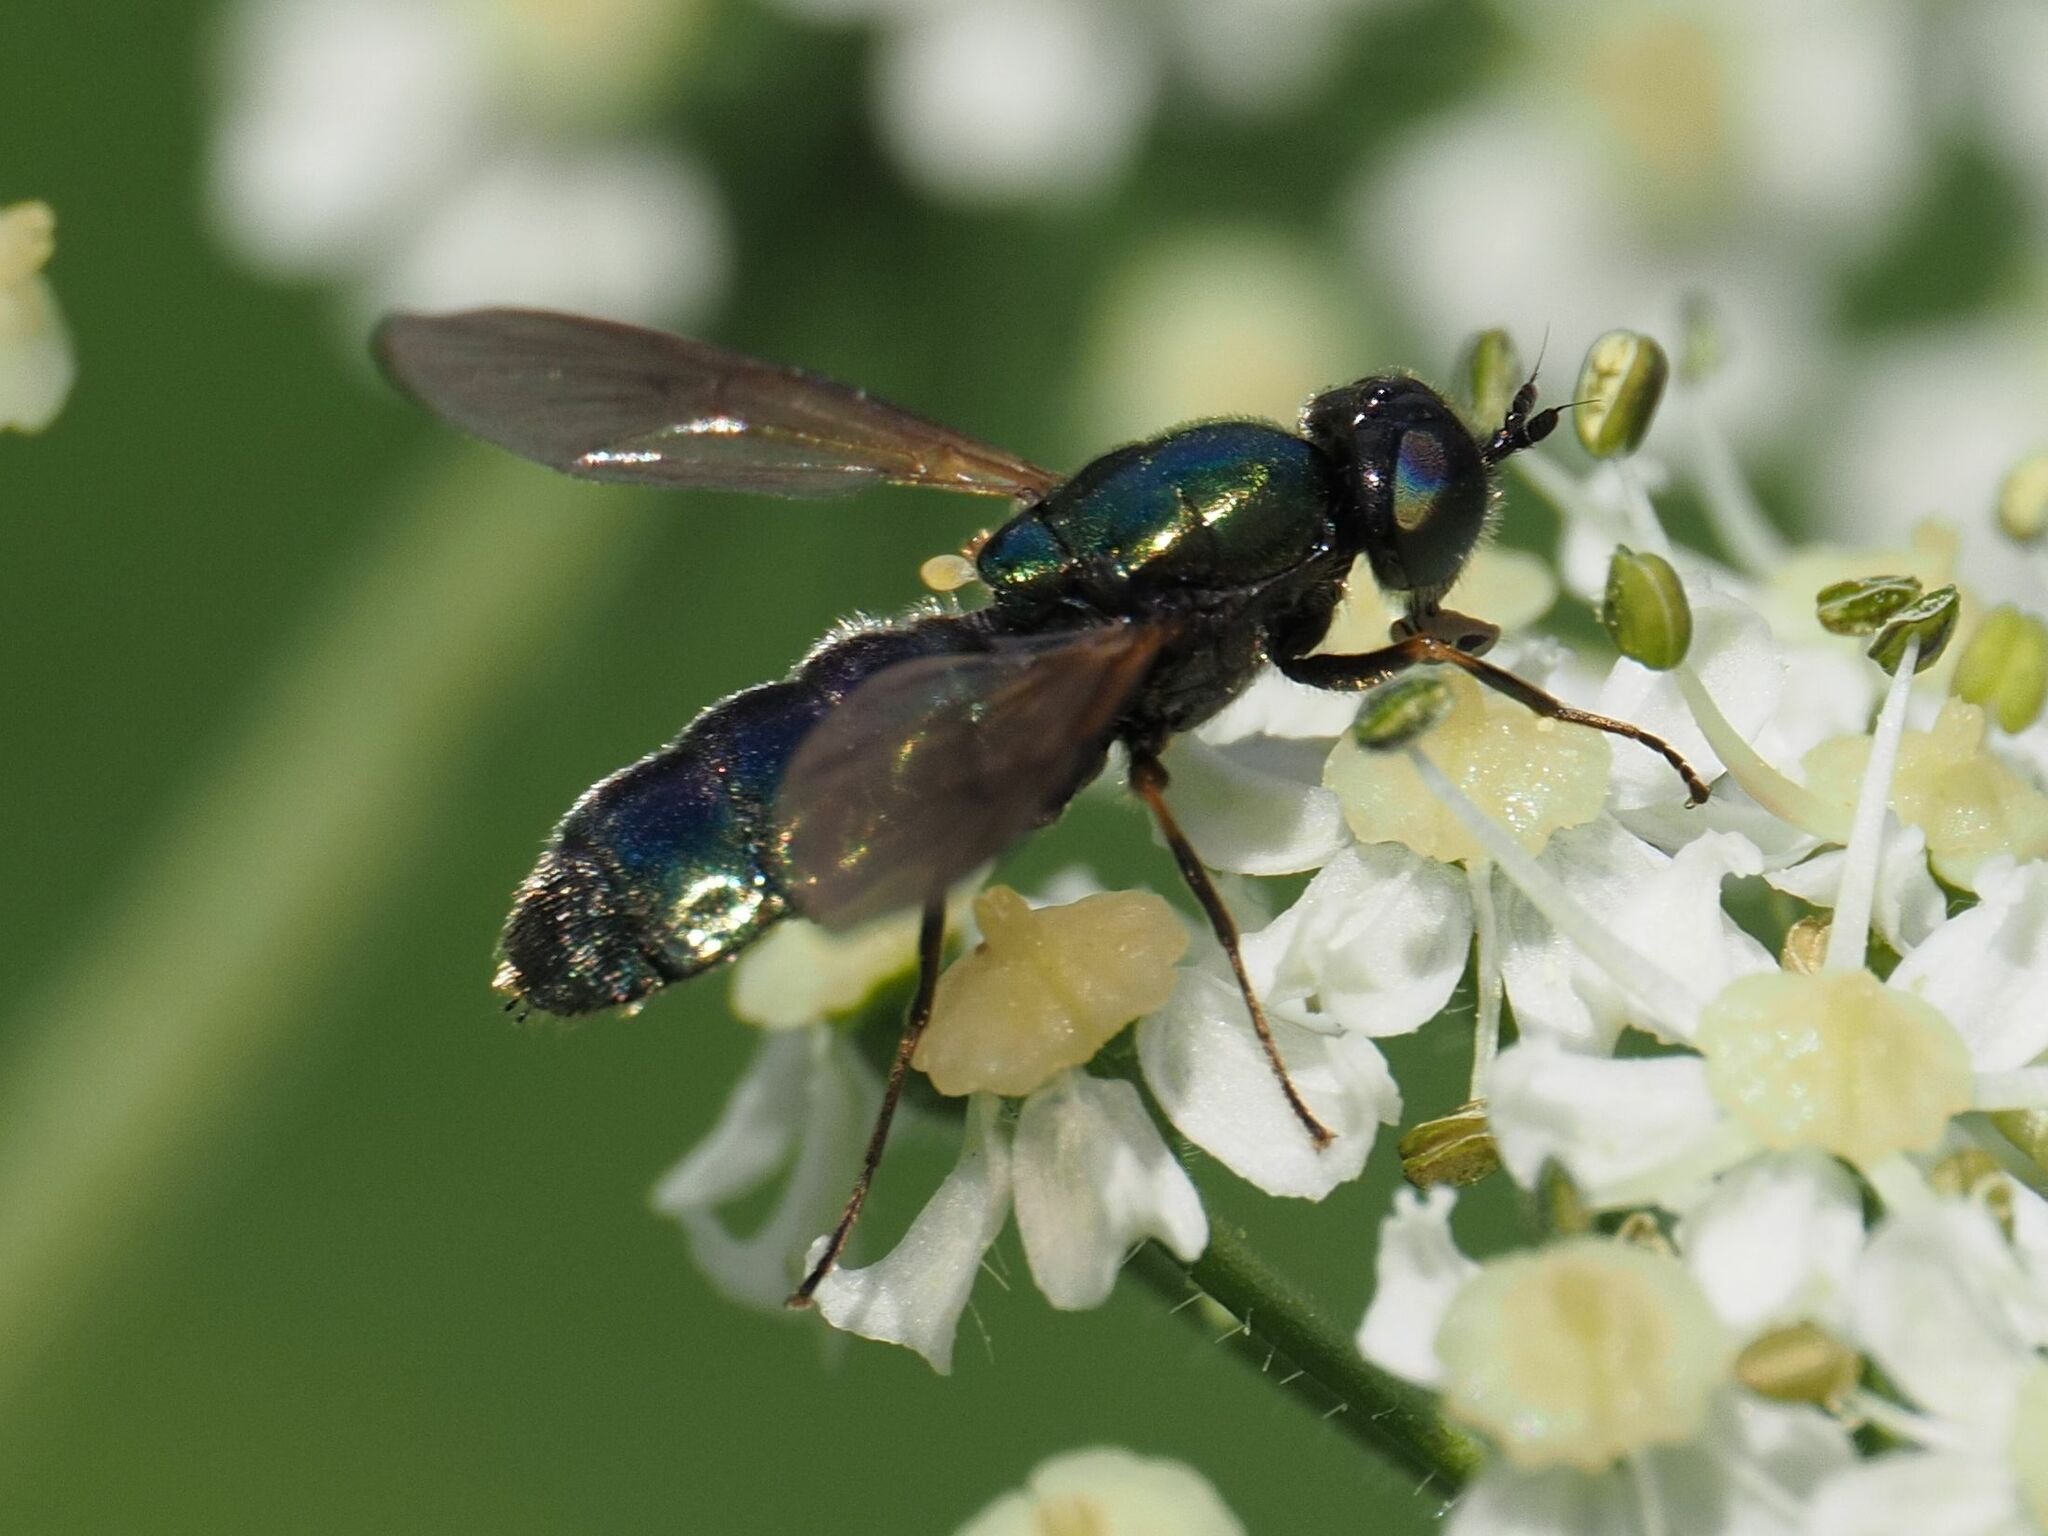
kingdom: Animalia
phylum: Arthropoda
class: Insecta
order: Diptera
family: Stratiomyidae
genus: Chloromyia
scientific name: Chloromyia formosa
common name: Soldier fly
